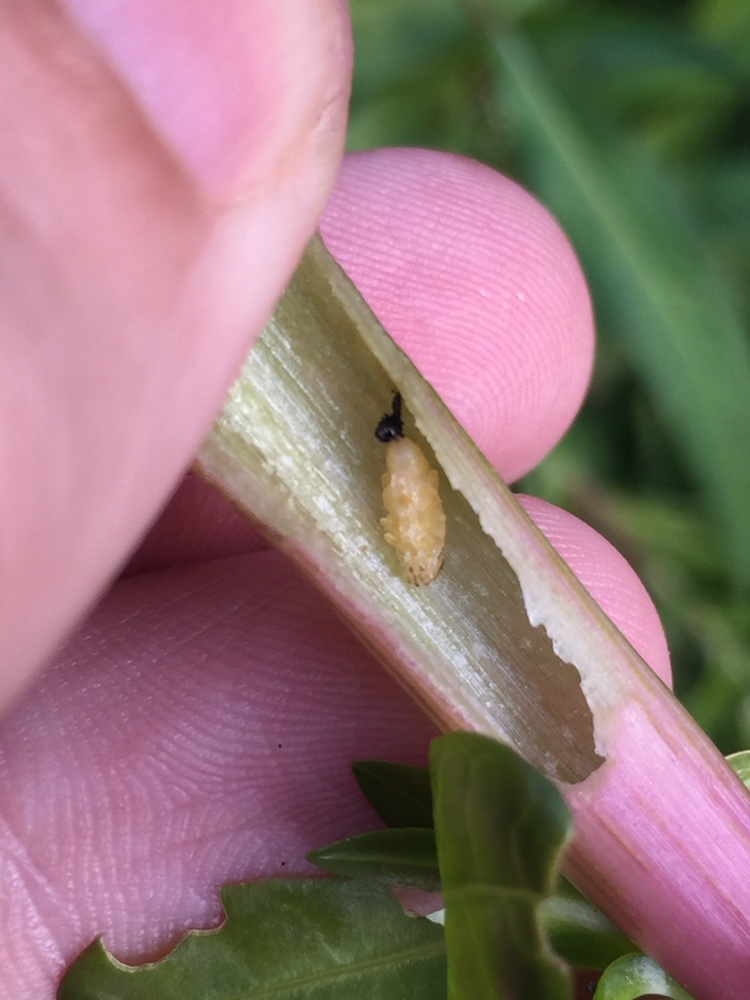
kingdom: Animalia
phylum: Arthropoda
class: Insecta
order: Coleoptera
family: Chrysomelidae
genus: Agasicles
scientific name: Agasicles hygrophila
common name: Alligatorweed flea beetle
